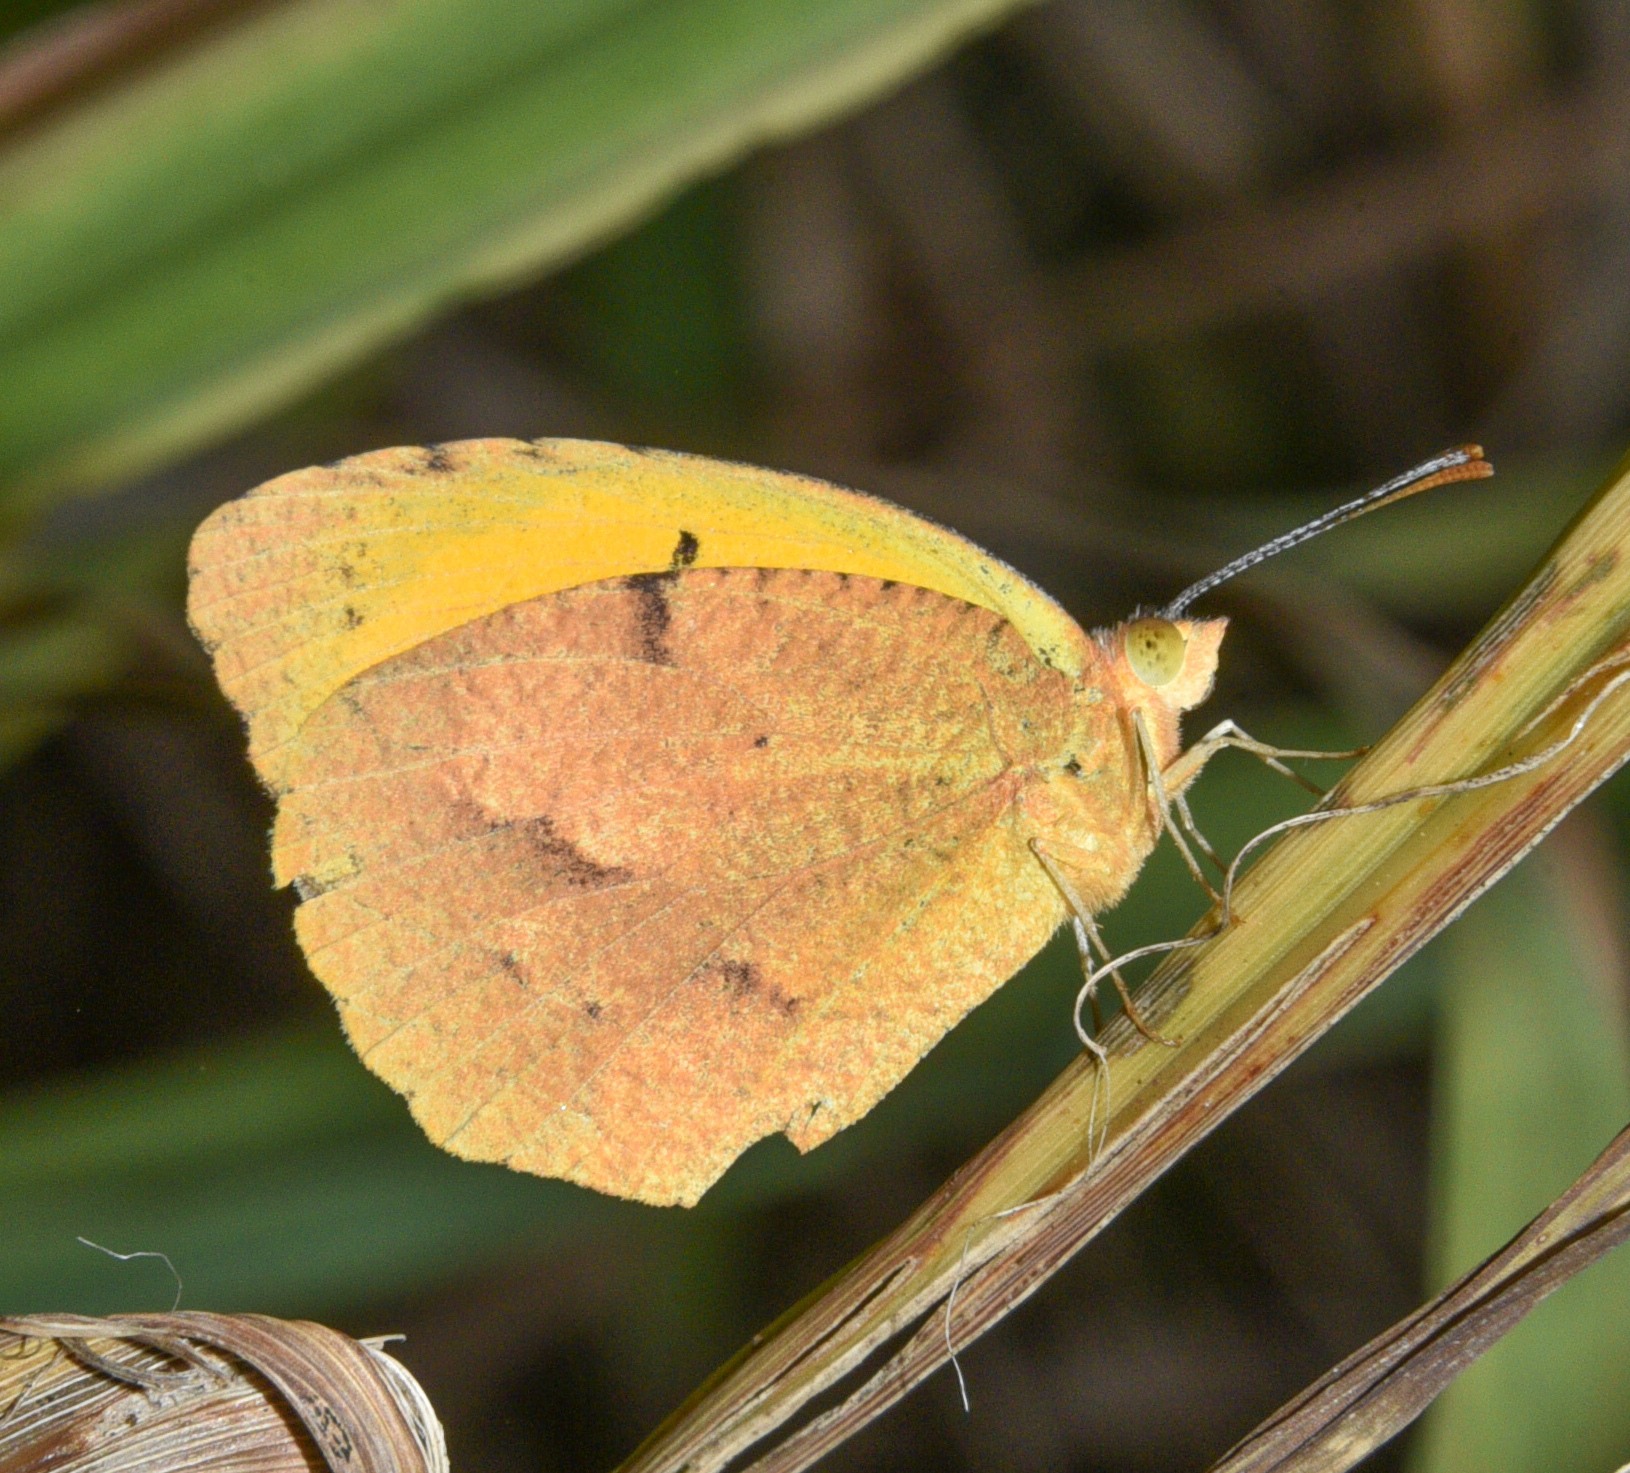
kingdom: Animalia
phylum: Arthropoda
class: Insecta
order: Lepidoptera
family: Pieridae
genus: Abaeis
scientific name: Abaeis nicippe
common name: Sleepy orange
